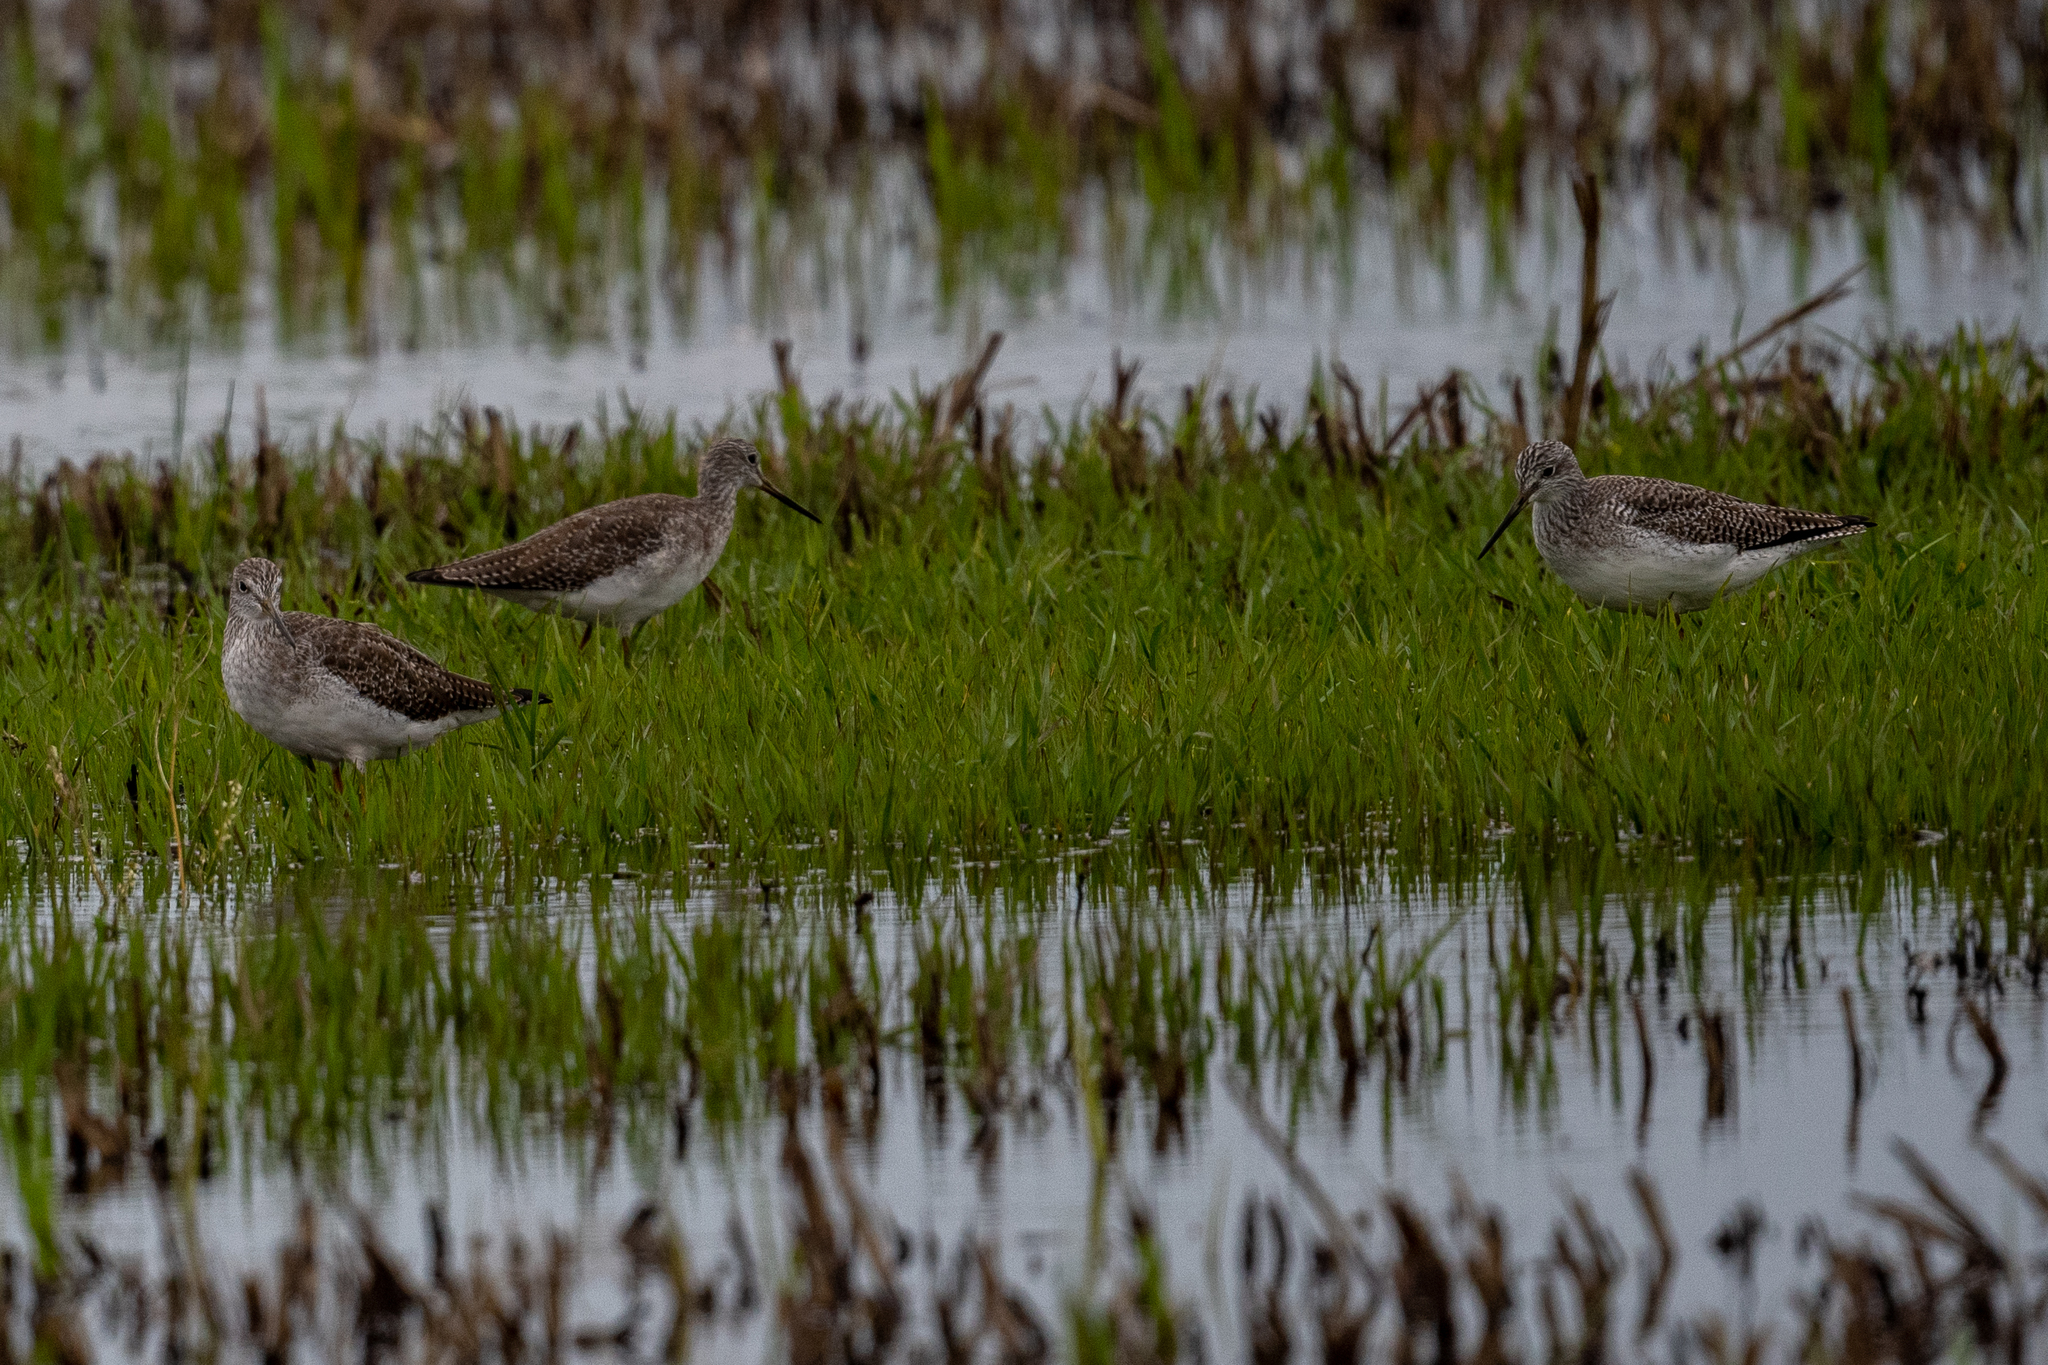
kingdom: Animalia
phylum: Chordata
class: Aves
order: Charadriiformes
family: Scolopacidae
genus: Tringa
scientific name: Tringa melanoleuca
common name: Greater yellowlegs
